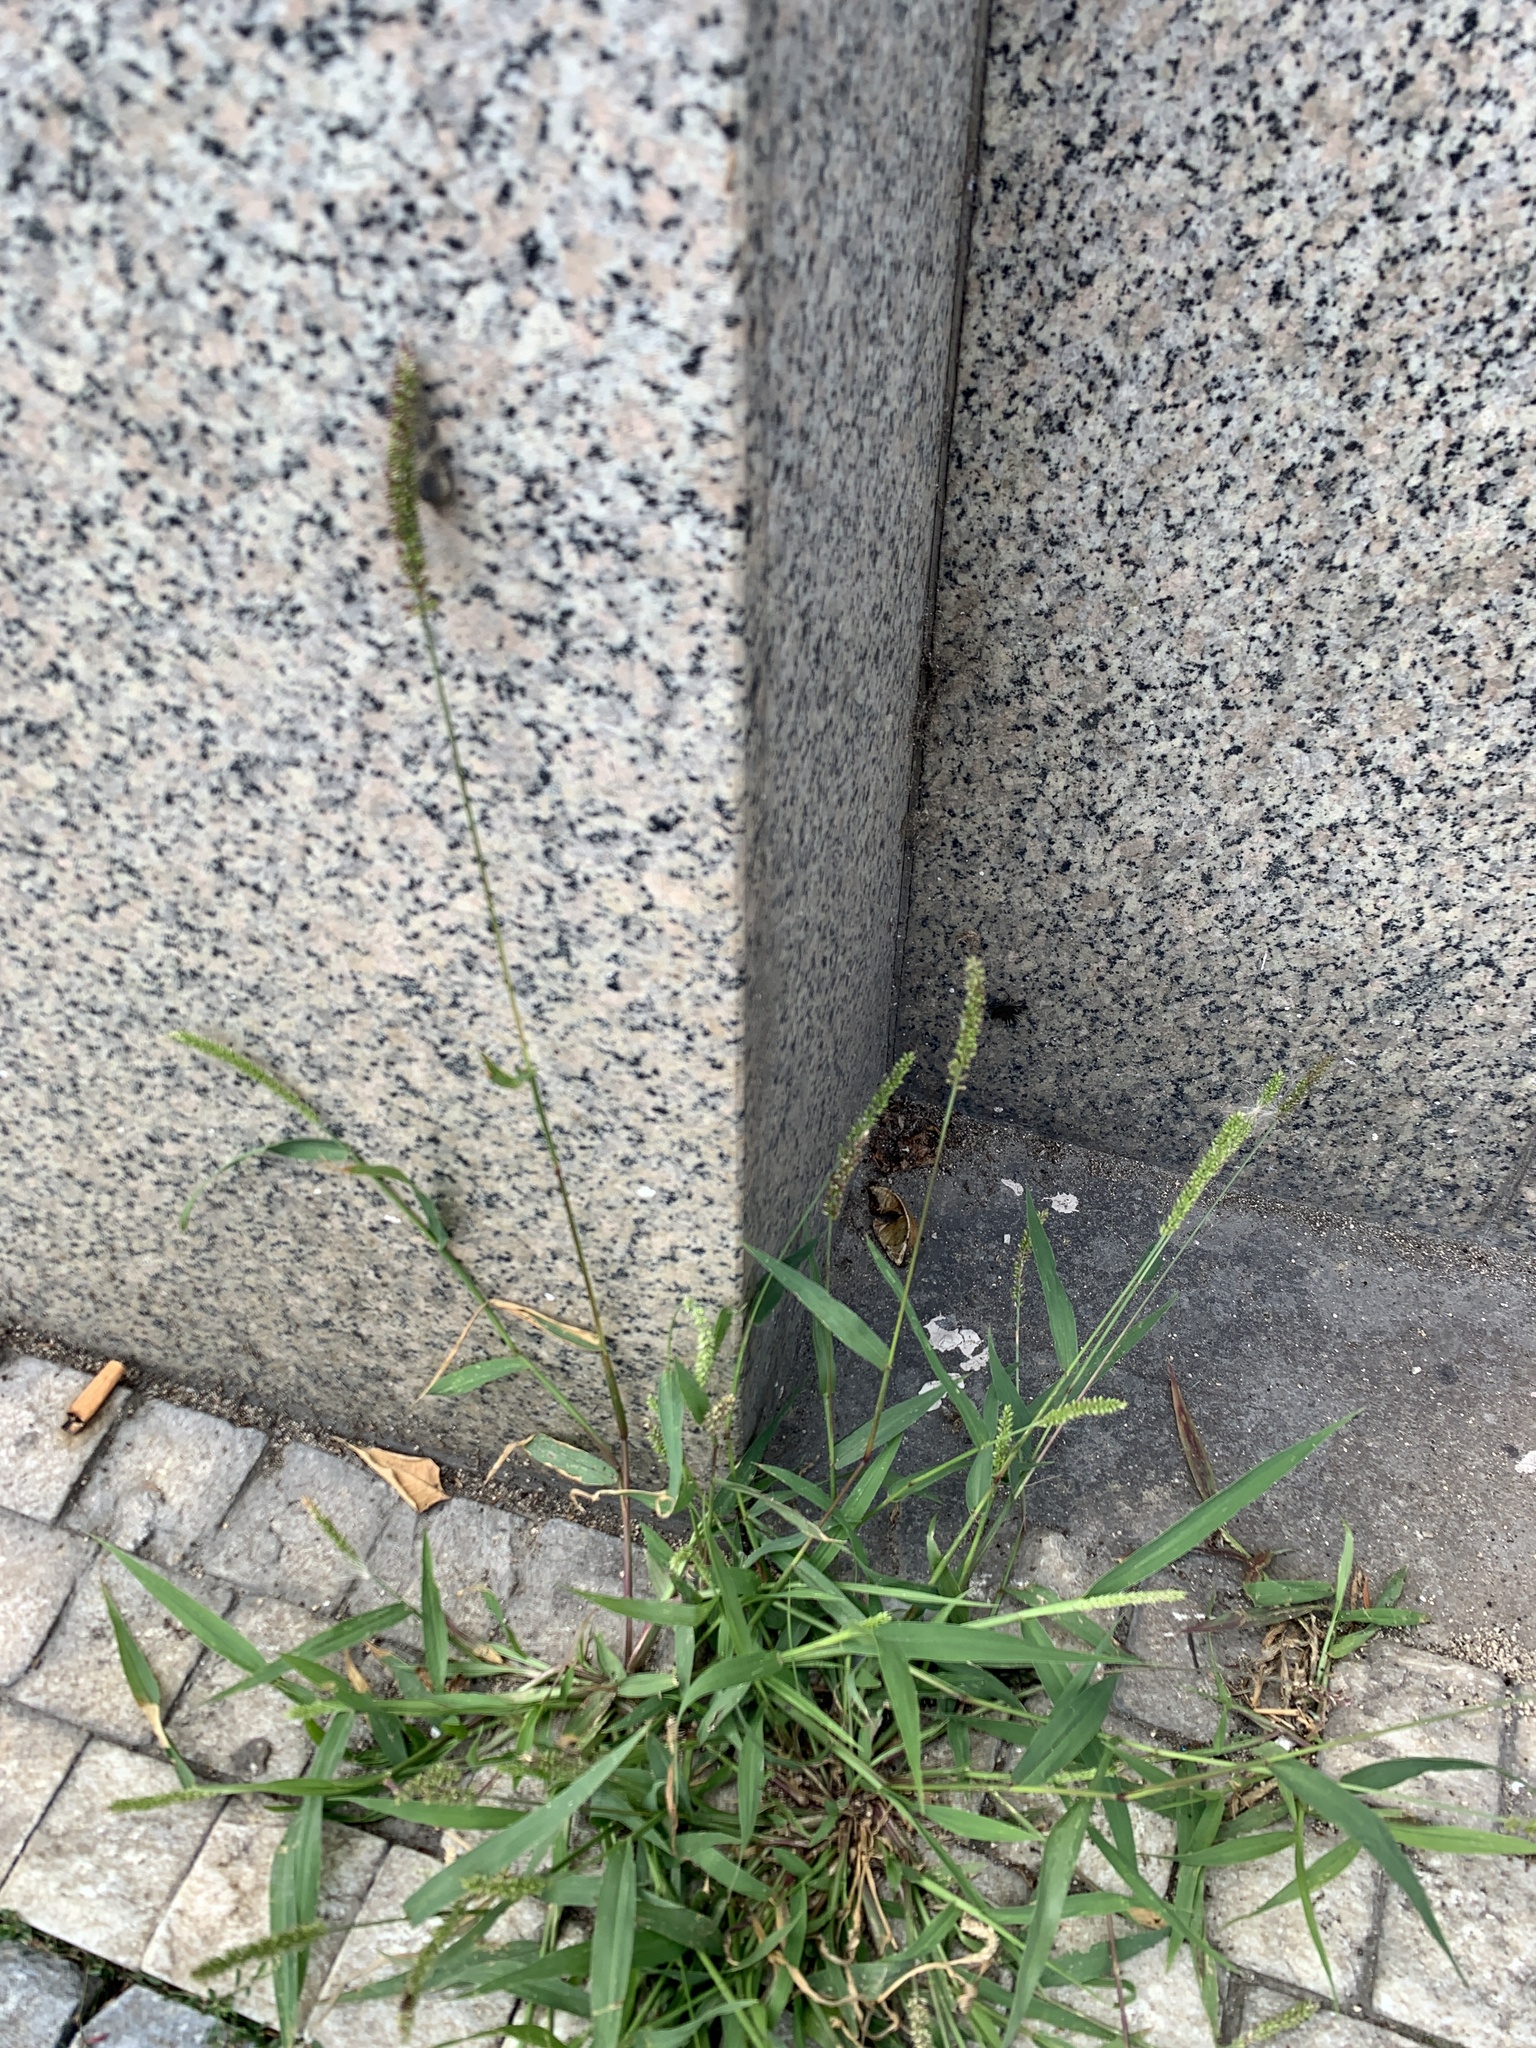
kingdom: Plantae
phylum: Tracheophyta
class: Liliopsida
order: Poales
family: Poaceae
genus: Setaria
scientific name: Setaria verticillata
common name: Hooked bristlegrass
